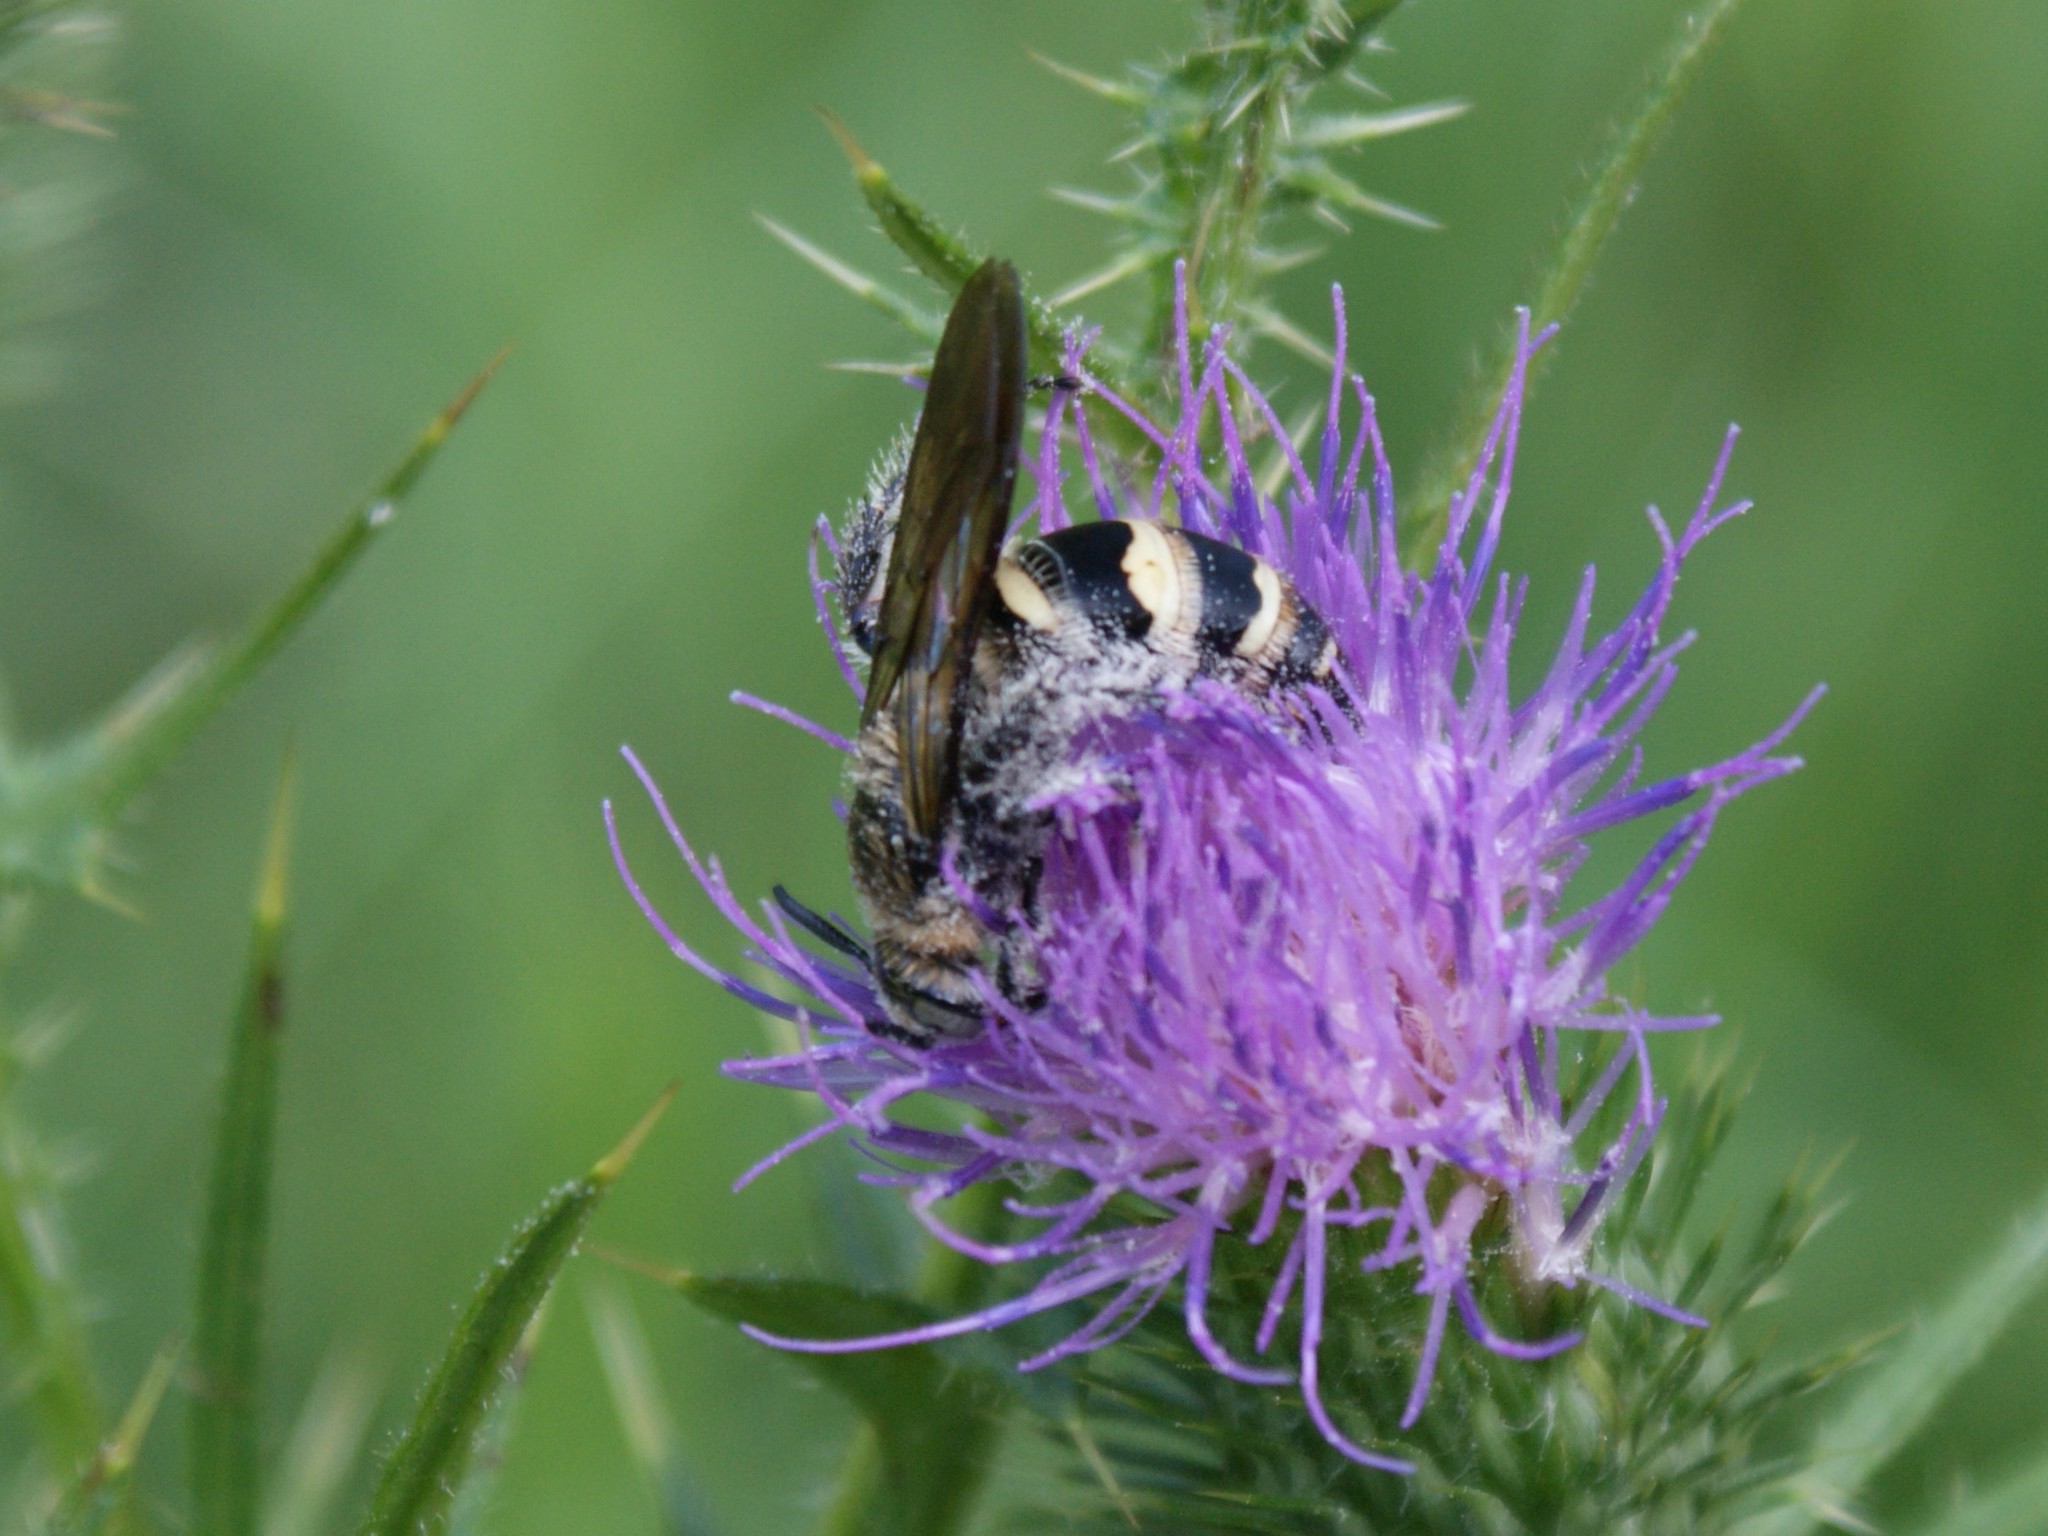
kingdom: Animalia
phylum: Arthropoda
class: Insecta
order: Hymenoptera
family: Scoliidae
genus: Dielis
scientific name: Dielis
